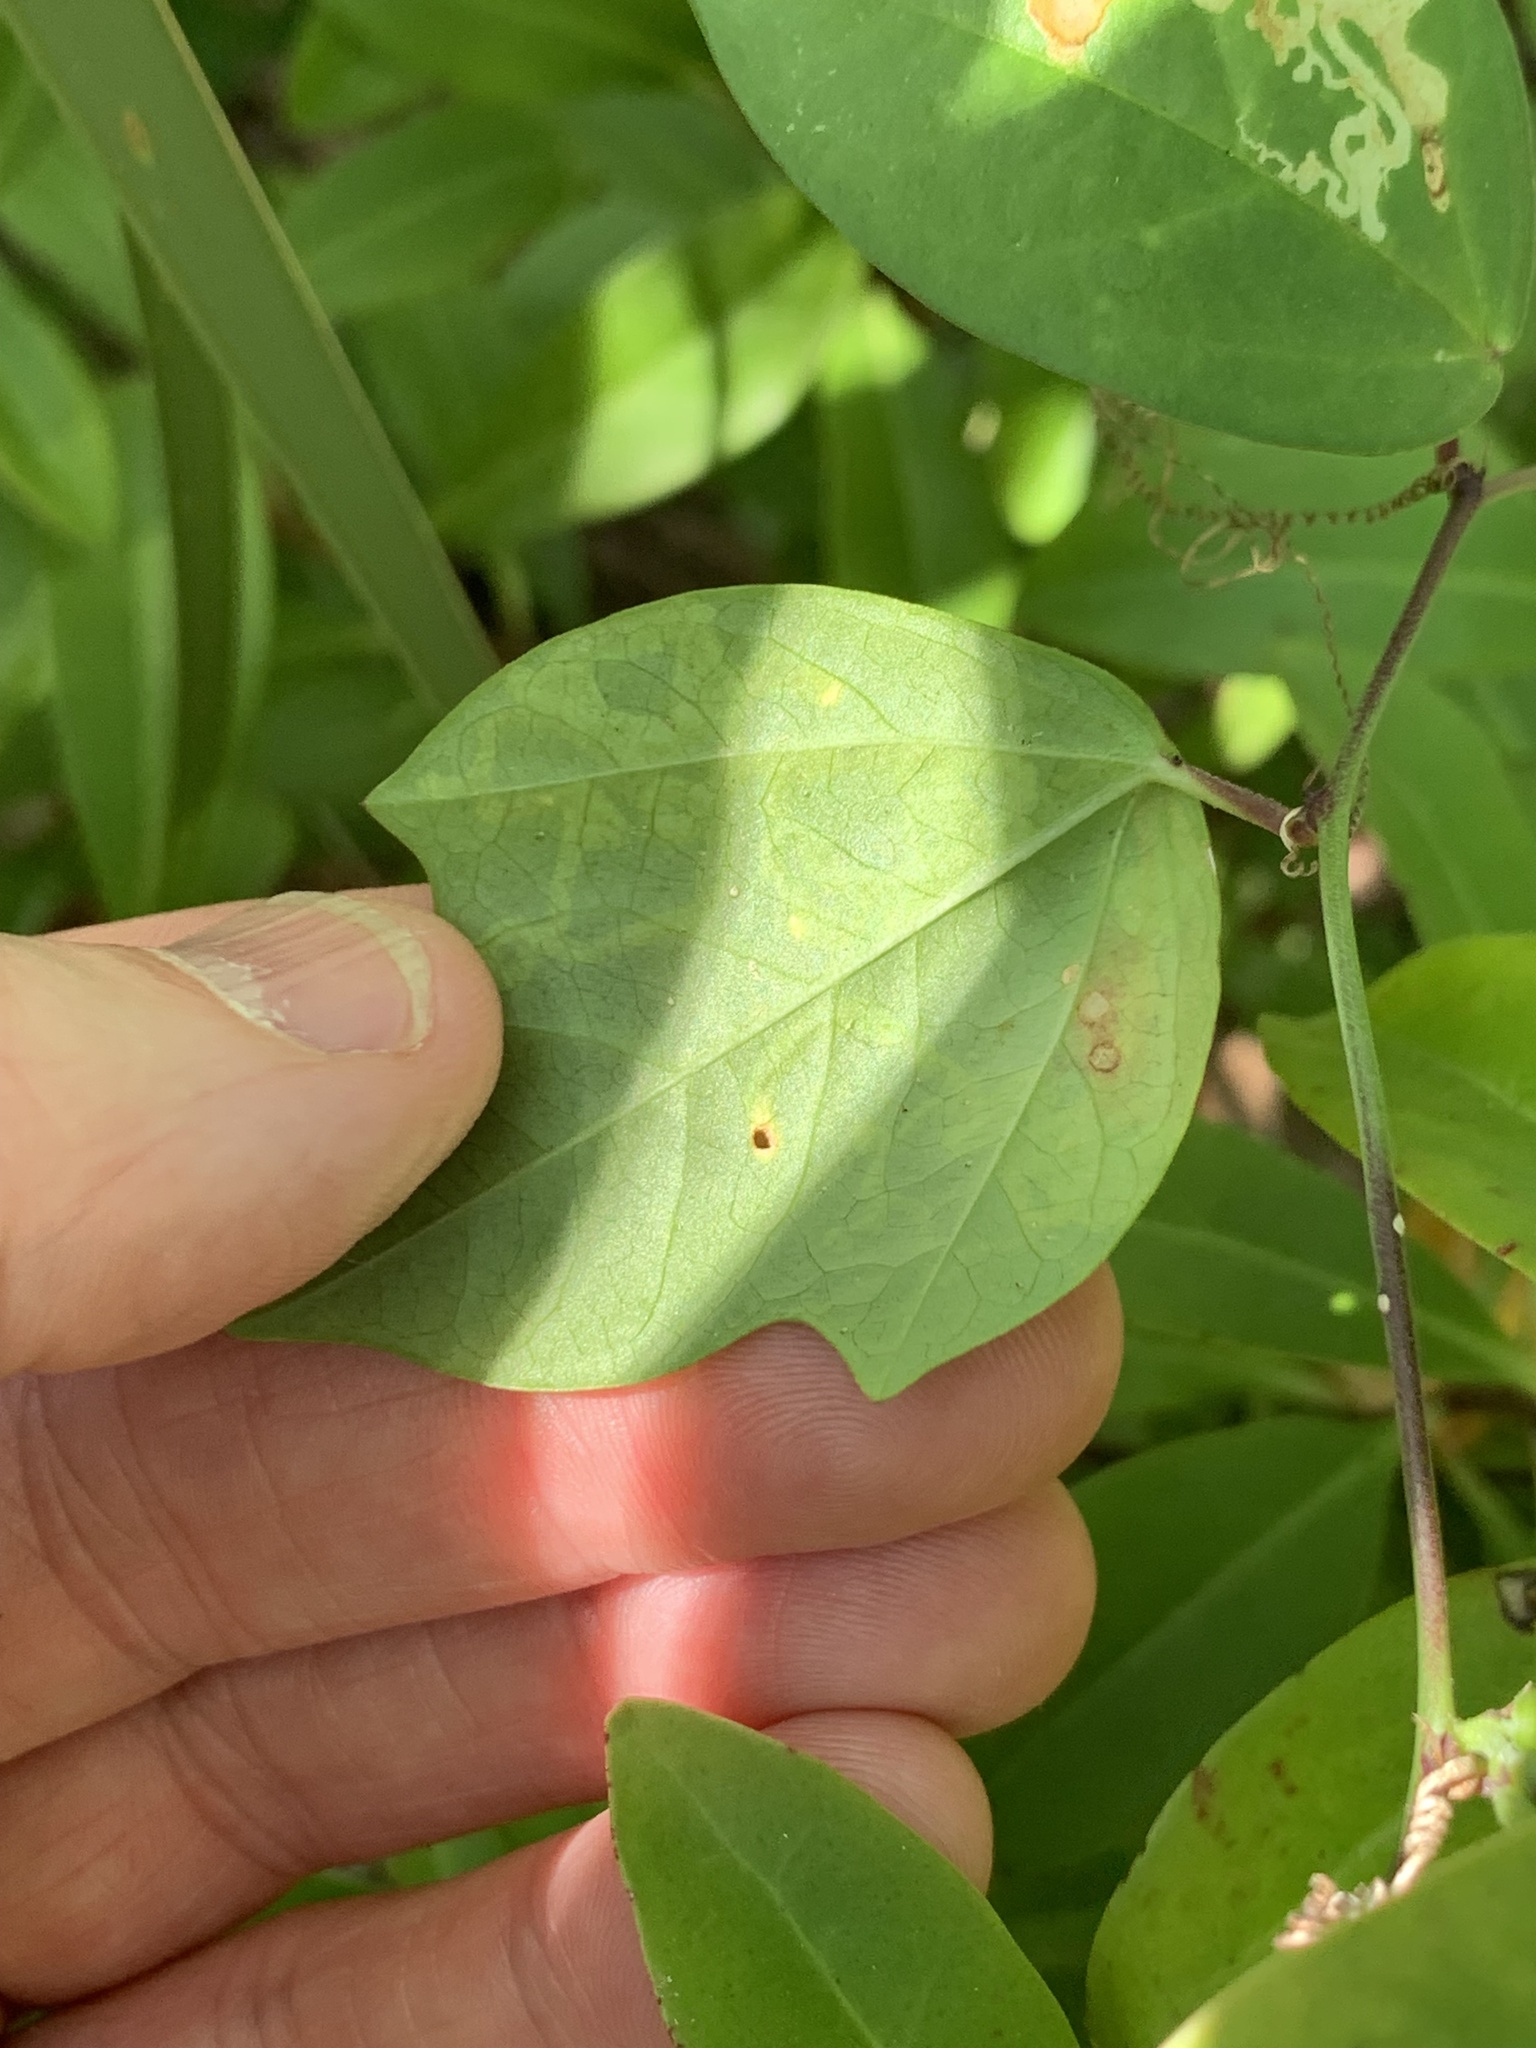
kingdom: Plantae
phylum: Tracheophyta
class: Magnoliopsida
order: Malpighiales
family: Passifloraceae
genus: Passiflora
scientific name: Passiflora pallida
